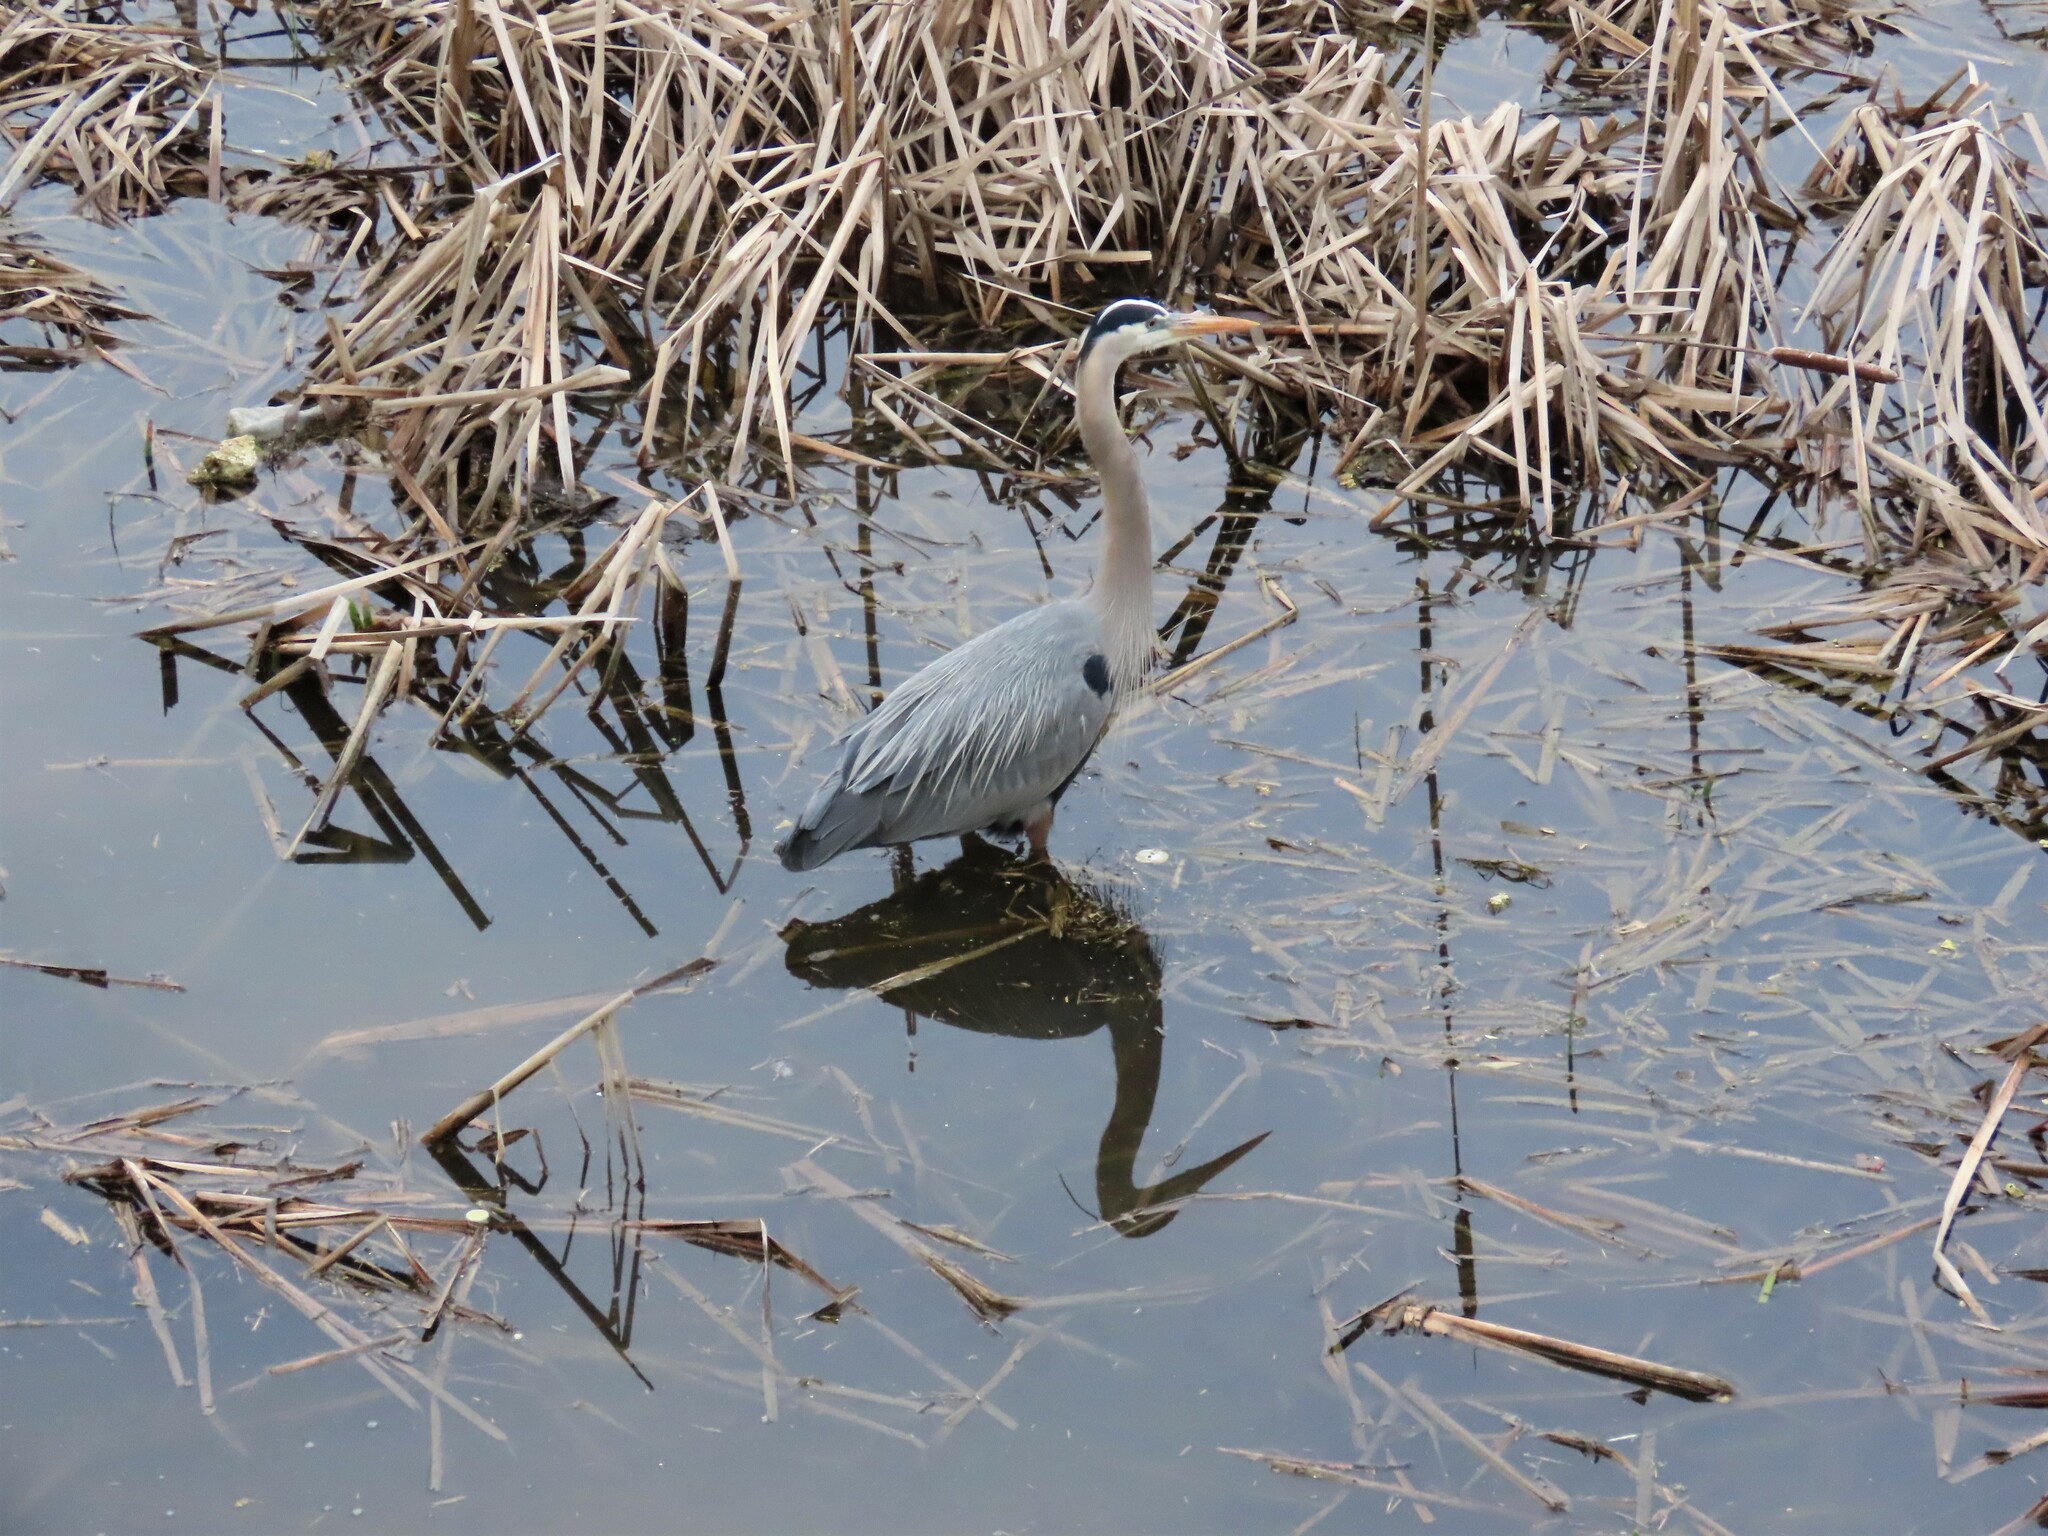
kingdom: Animalia
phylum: Chordata
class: Aves
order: Pelecaniformes
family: Ardeidae
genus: Ardea
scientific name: Ardea herodias
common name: Great blue heron
